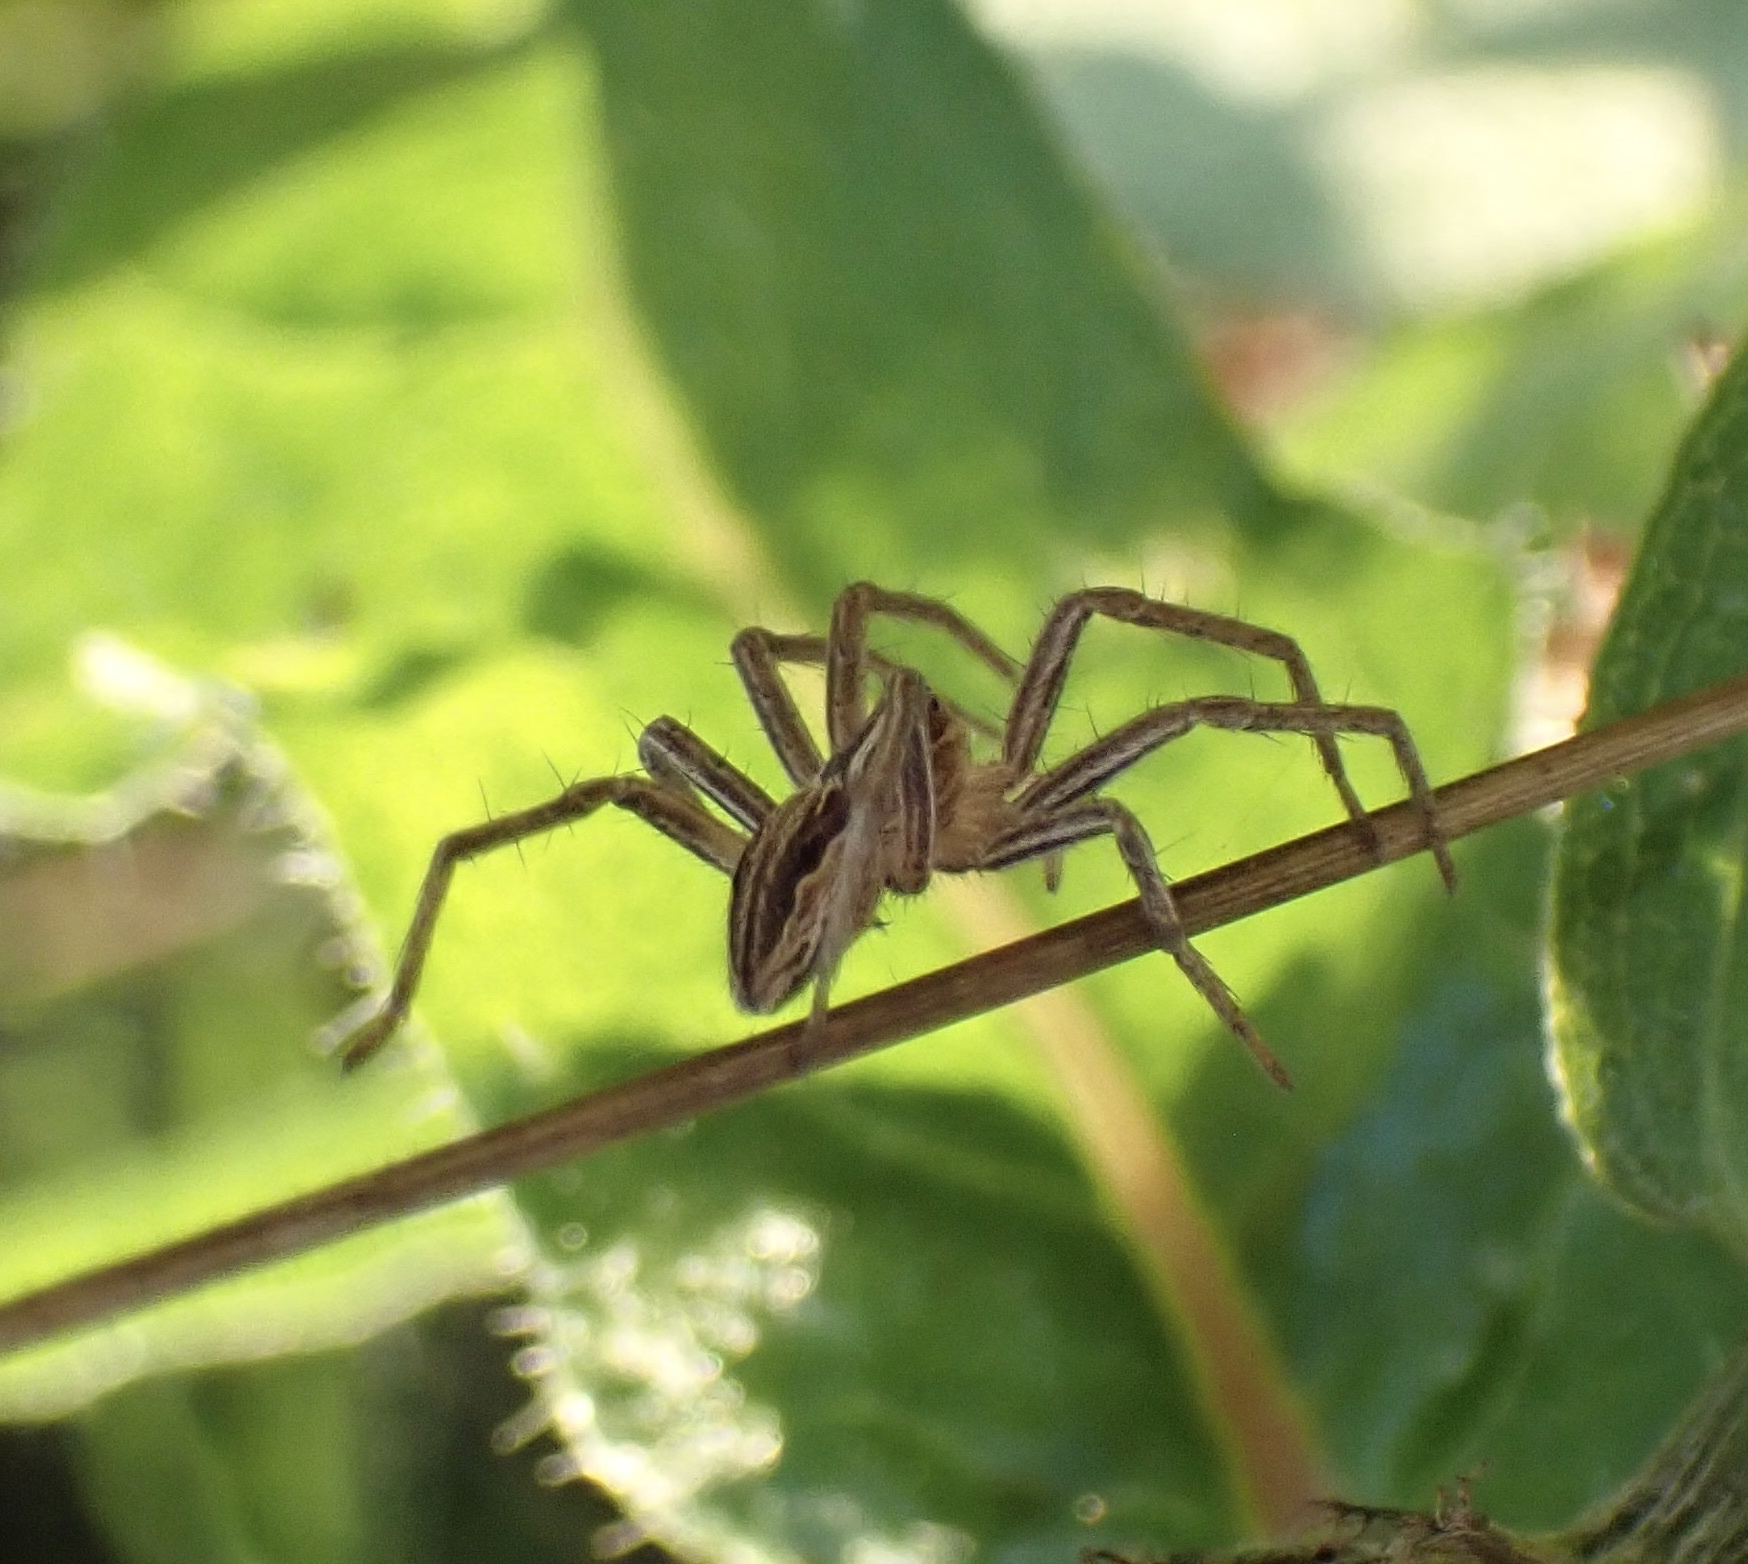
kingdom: Animalia
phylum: Arthropoda
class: Arachnida
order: Araneae
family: Pisauridae
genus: Pisaura
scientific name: Pisaura mirabilis
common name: Tent spider
